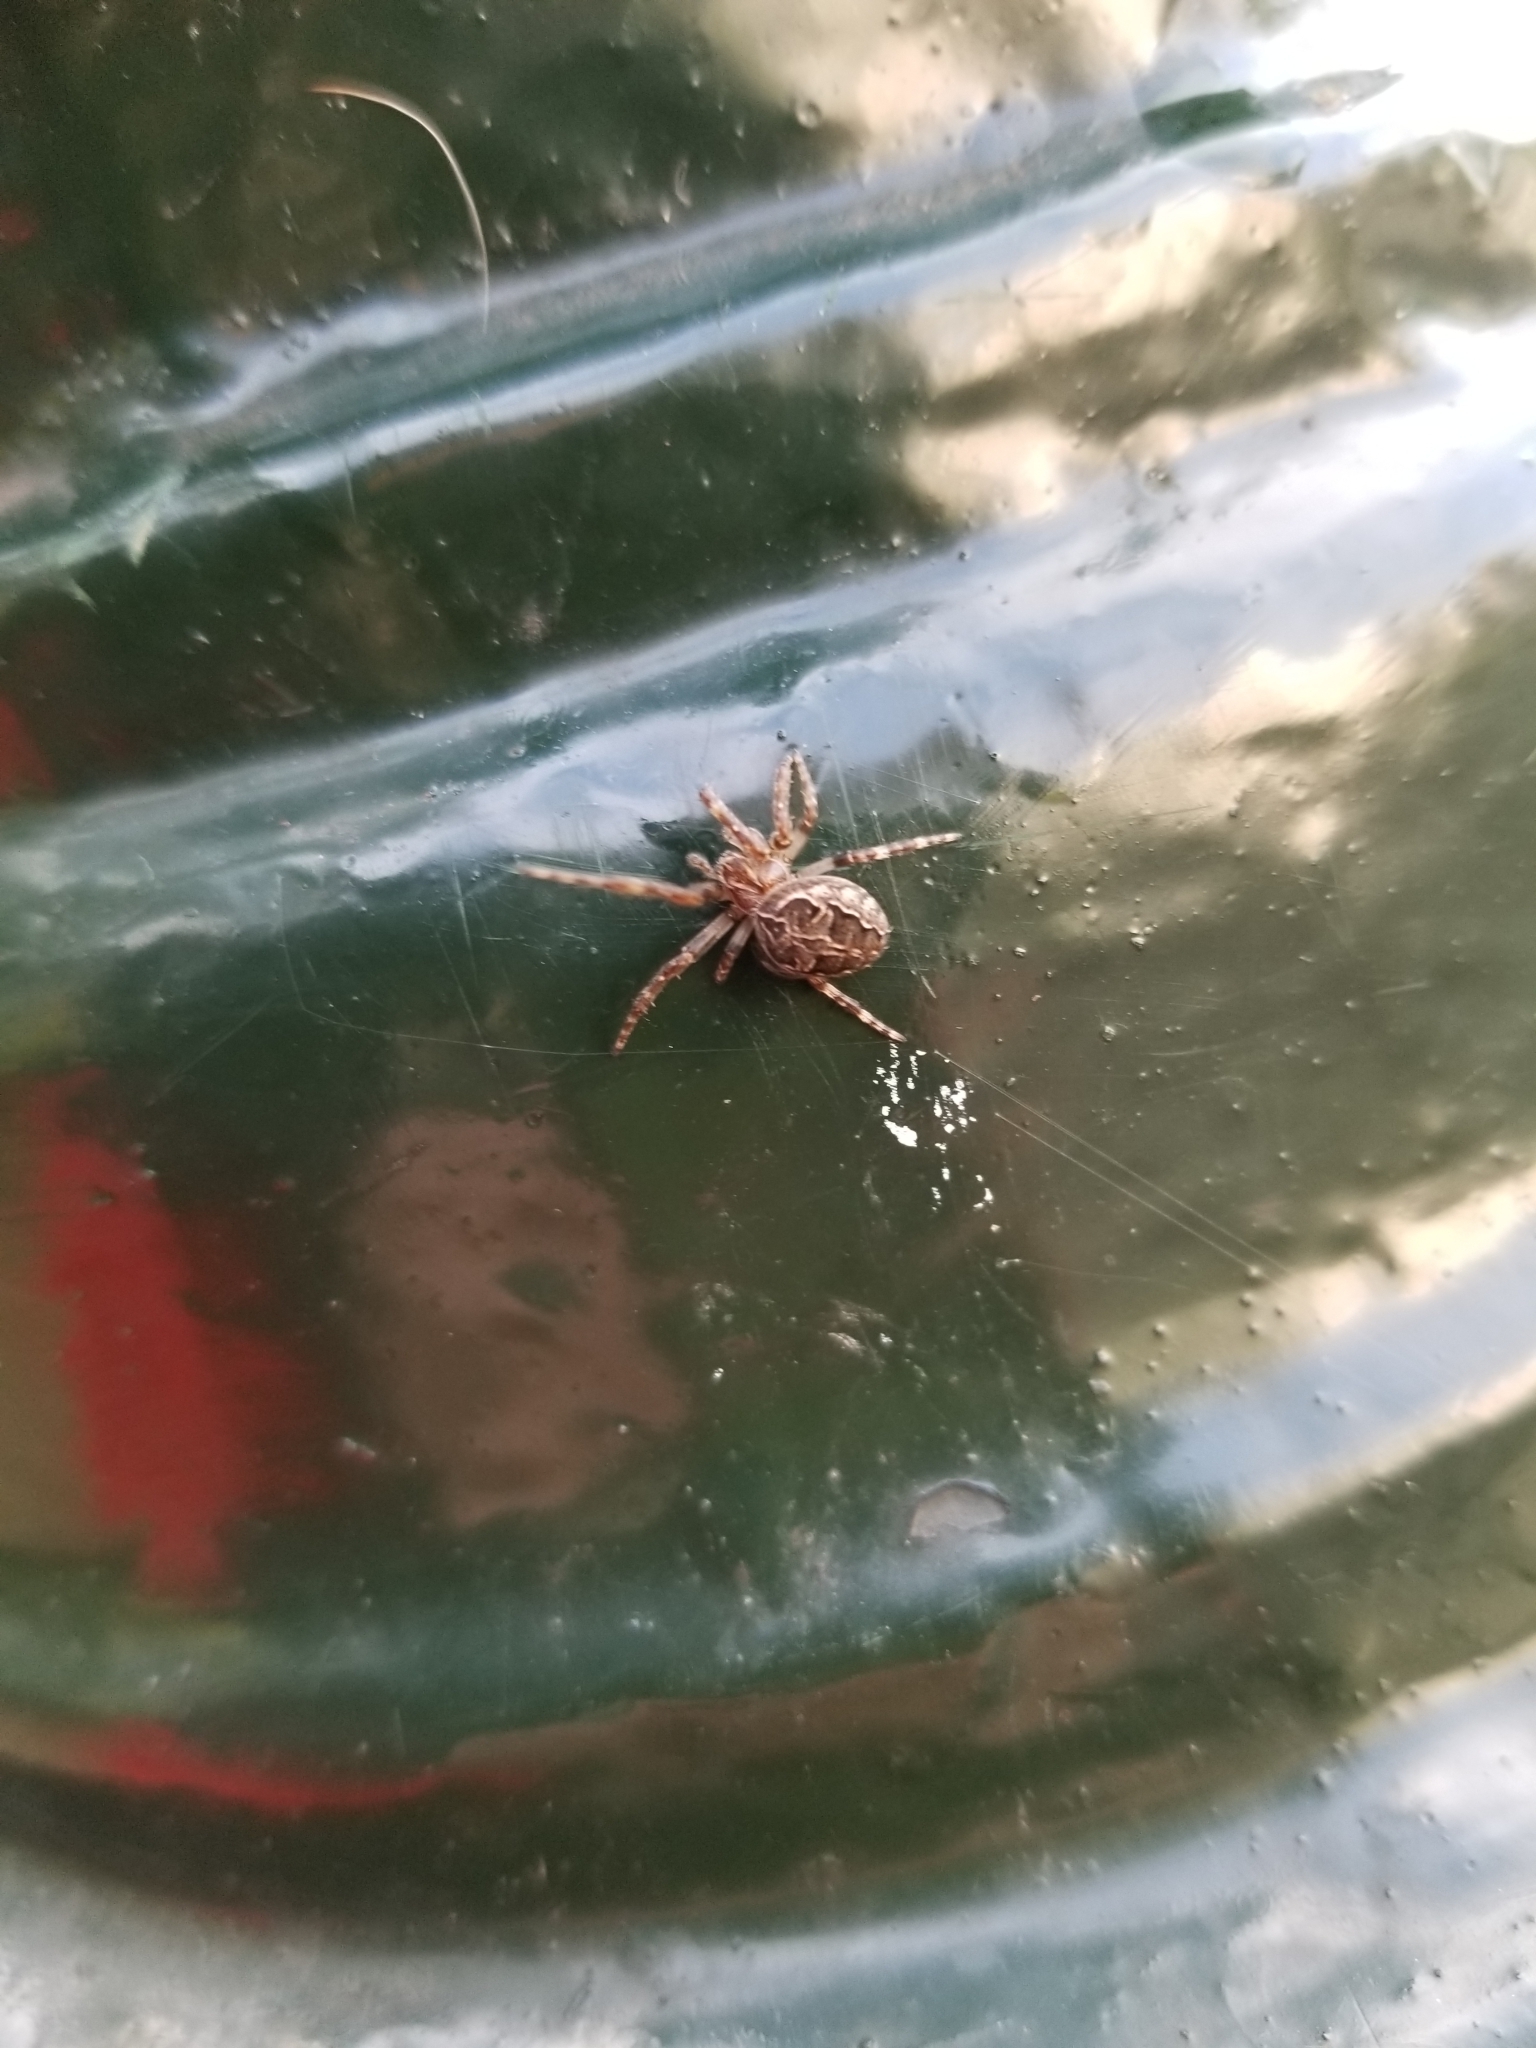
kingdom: Animalia
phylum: Arthropoda
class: Arachnida
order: Araneae
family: Araneidae
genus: Larinioides
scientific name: Larinioides sclopetarius
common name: Bridge orbweaver
